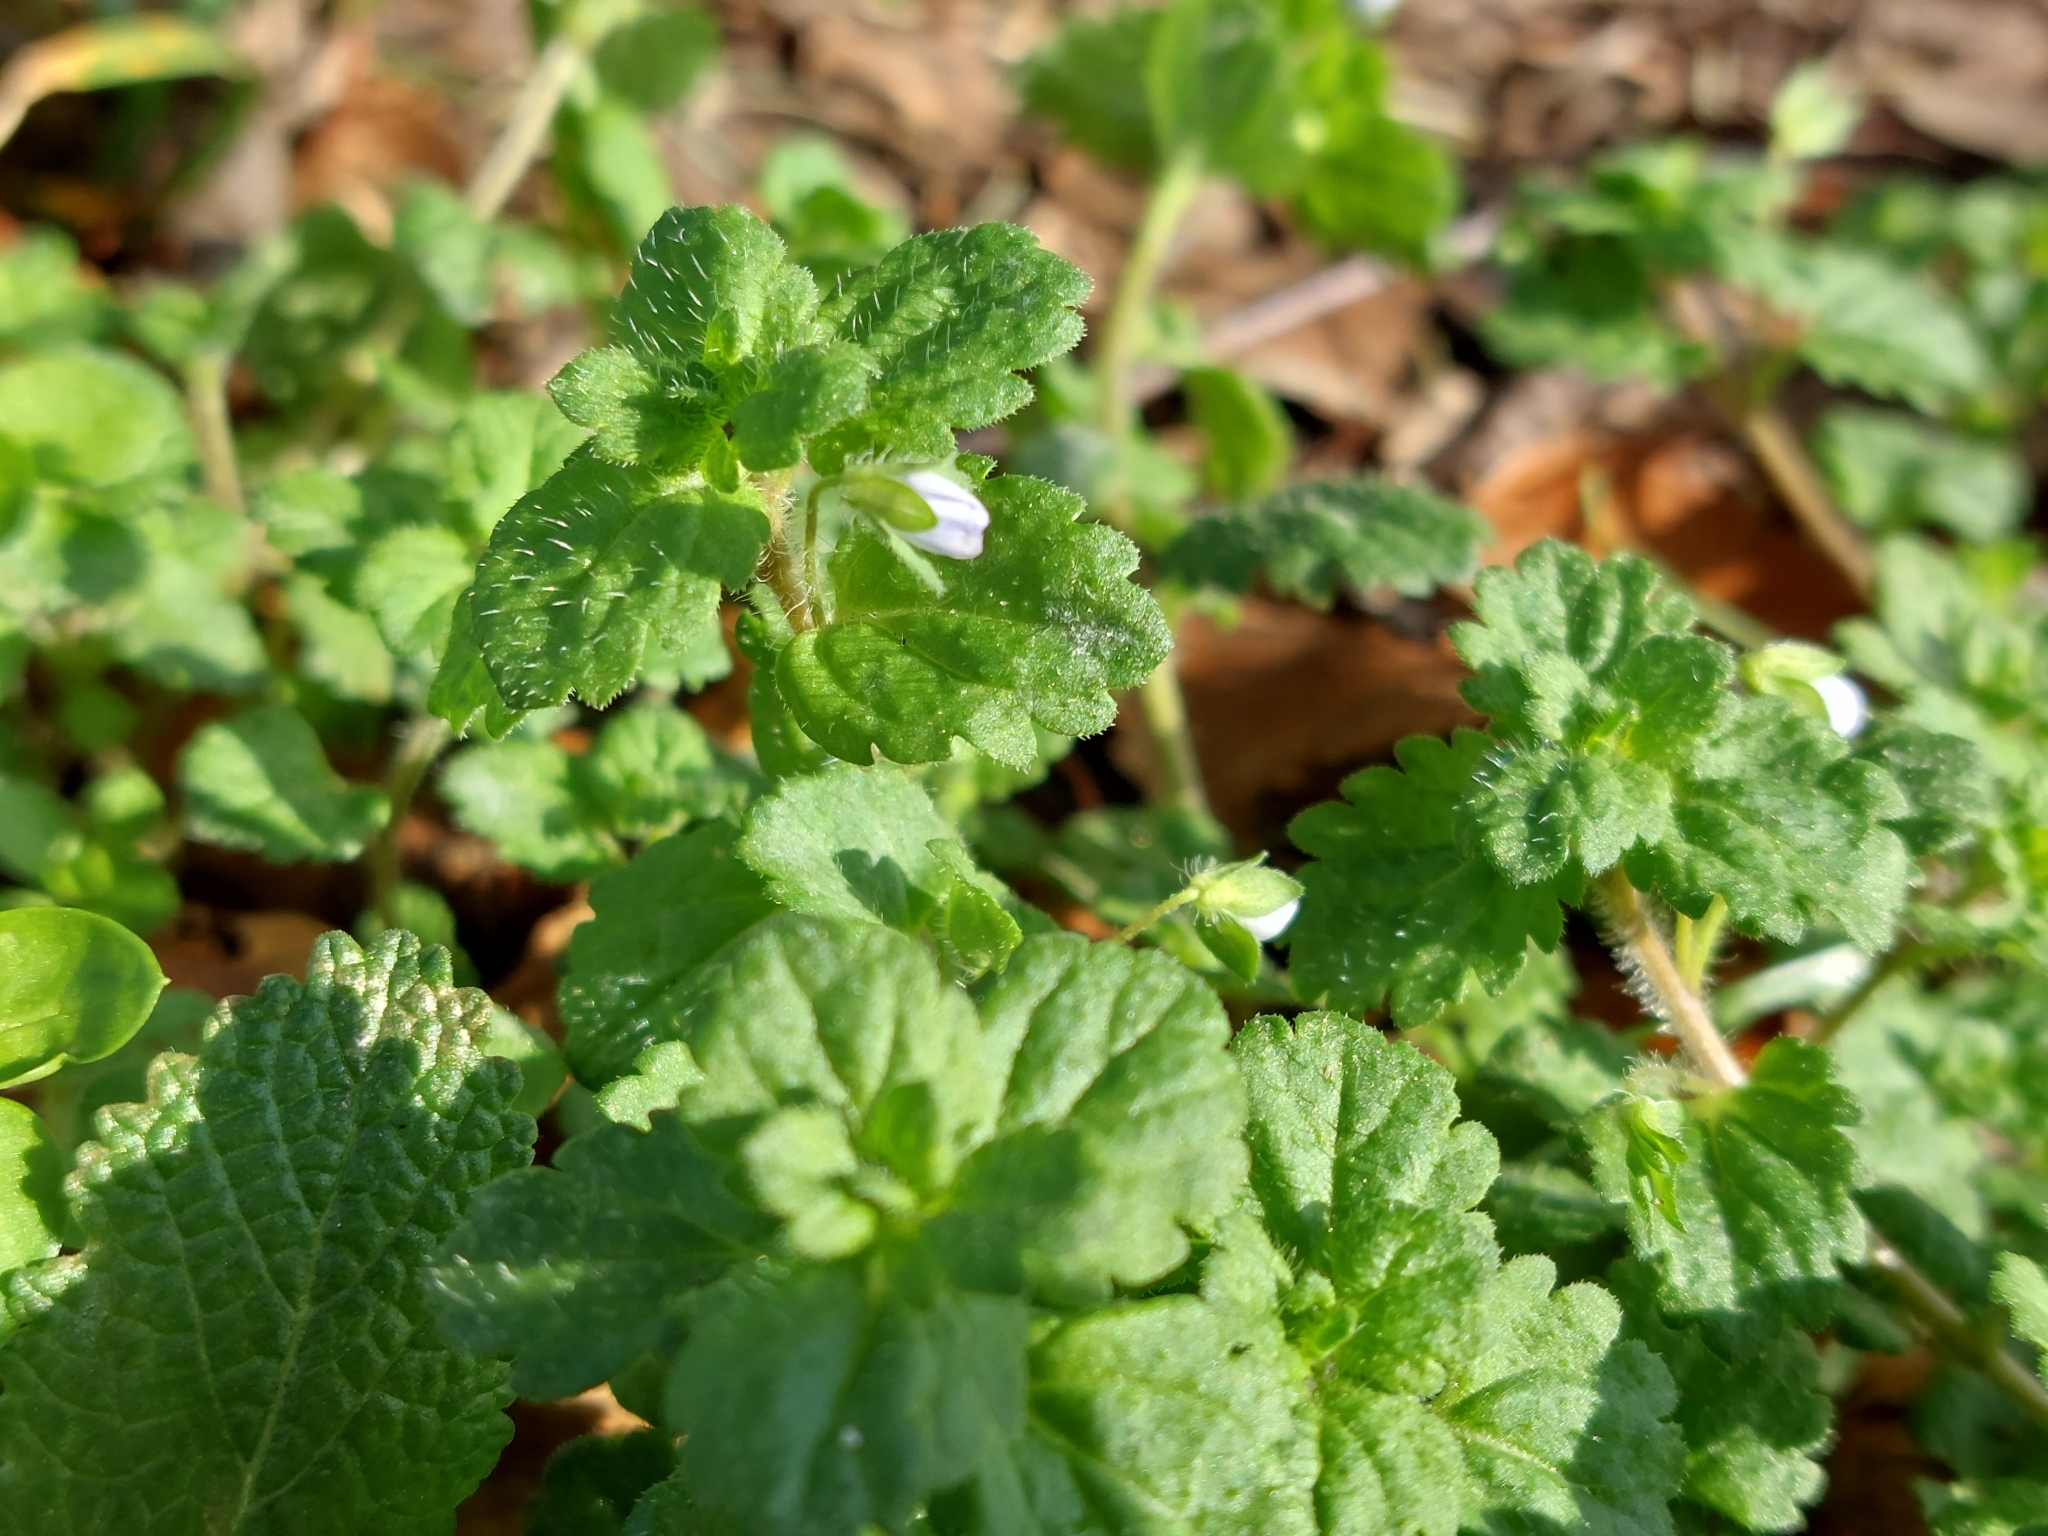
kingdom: Plantae
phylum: Tracheophyta
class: Magnoliopsida
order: Lamiales
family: Plantaginaceae
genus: Veronica
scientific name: Veronica persica
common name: Common field-speedwell
